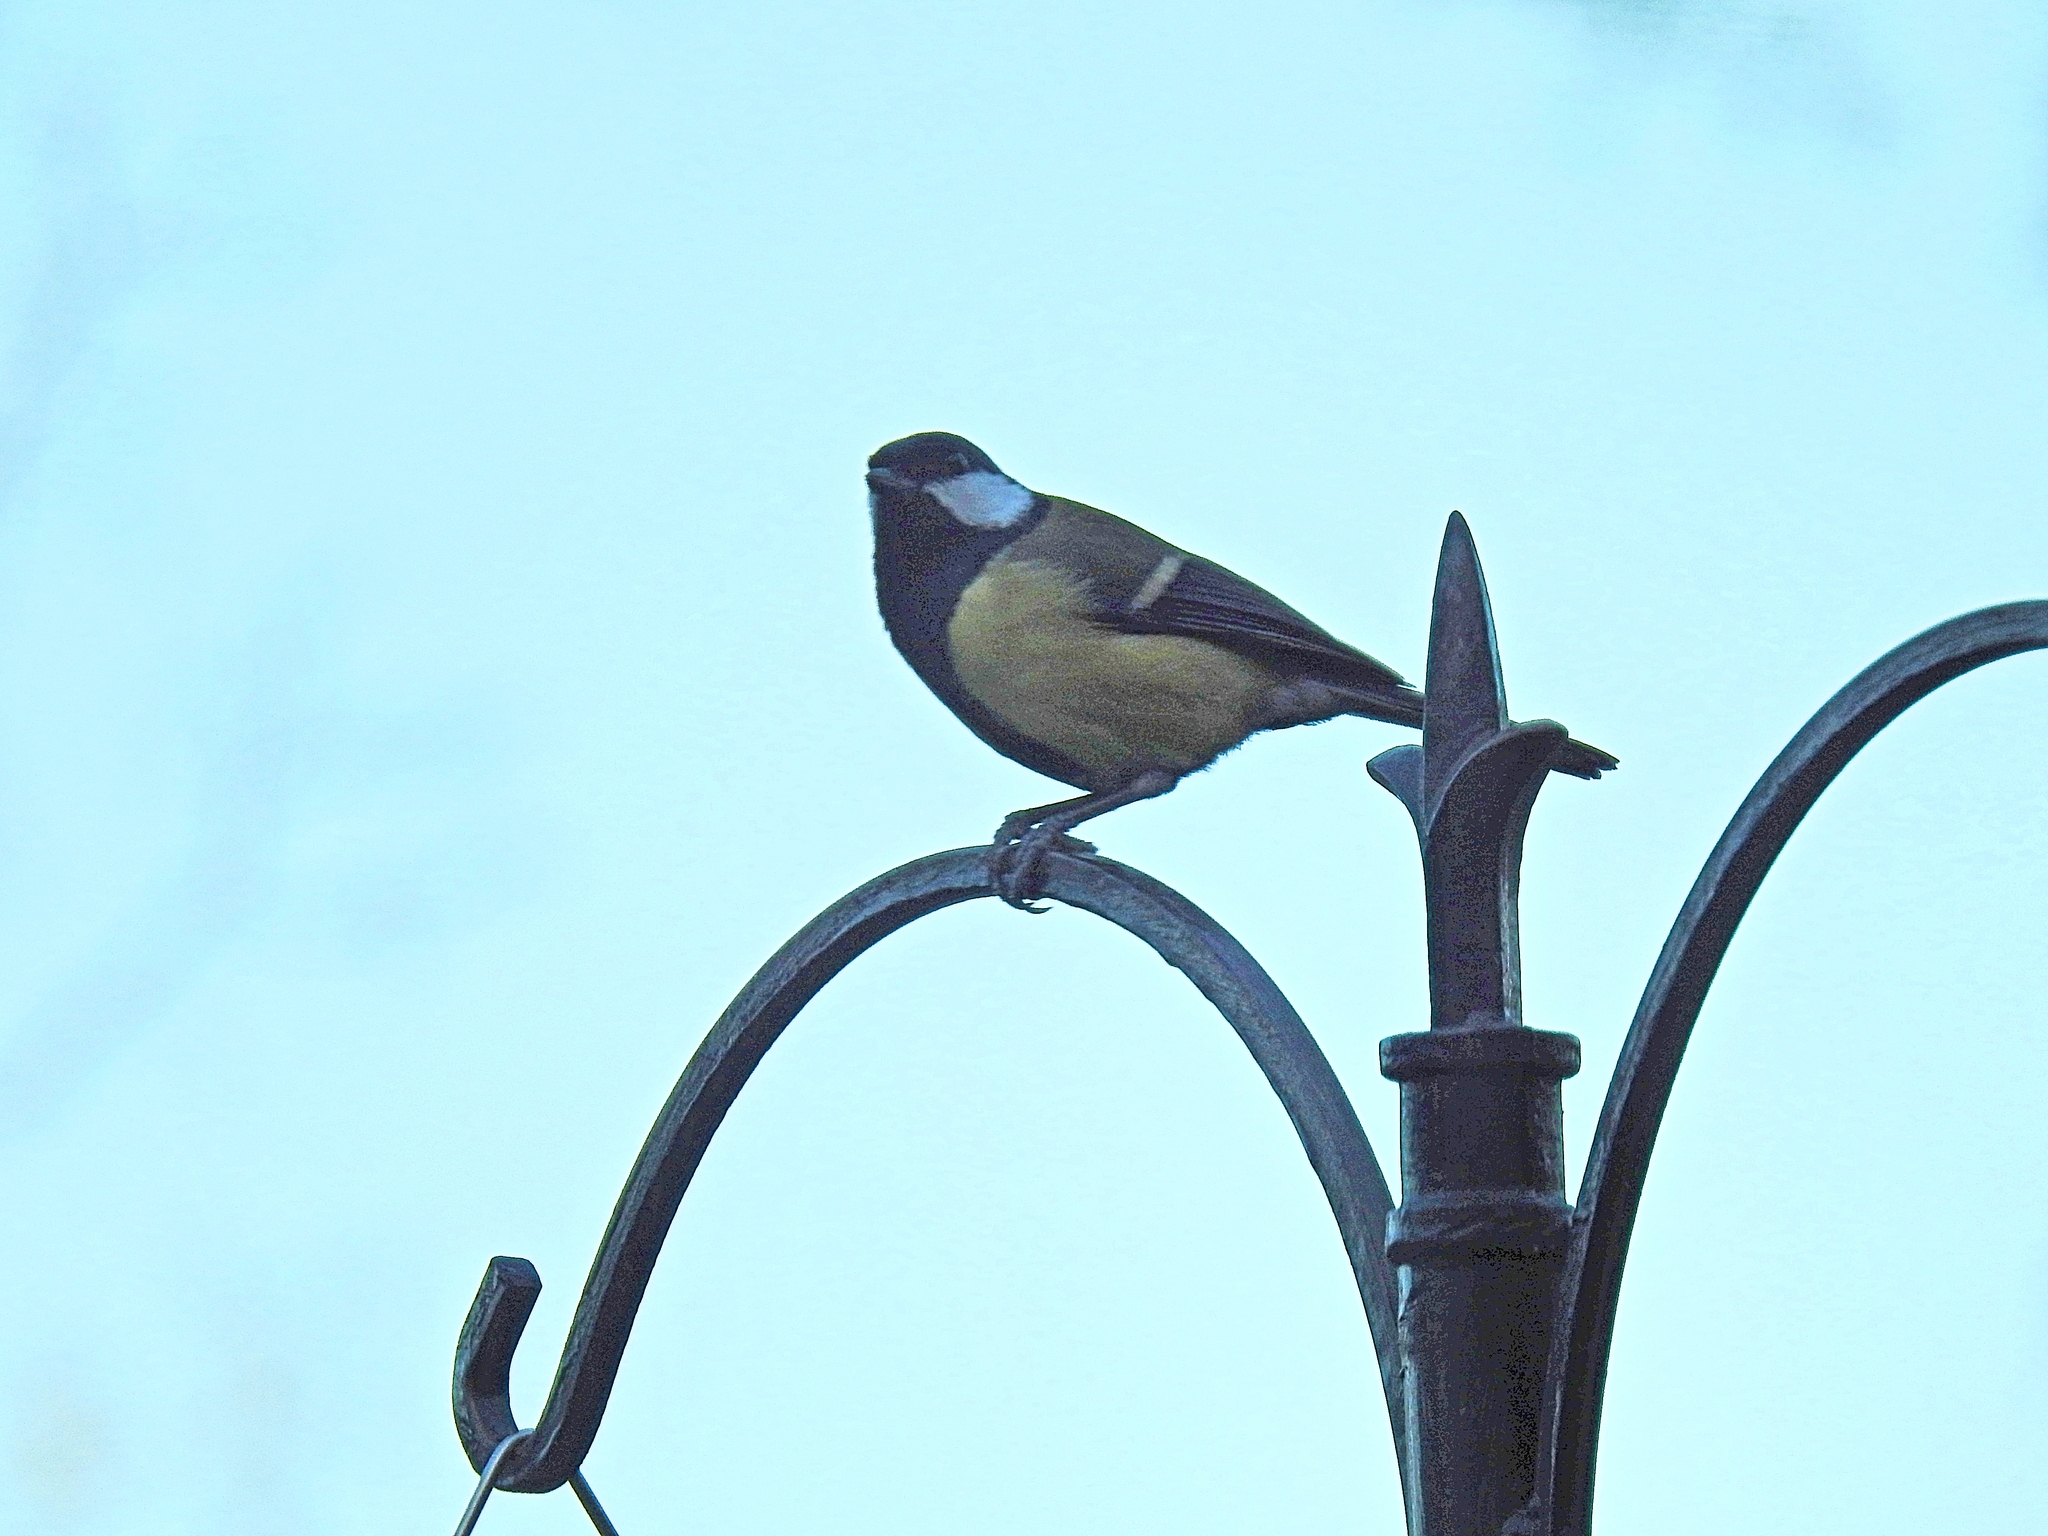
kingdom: Animalia
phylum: Chordata
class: Aves
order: Passeriformes
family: Paridae
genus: Parus
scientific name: Parus major
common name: Great tit
